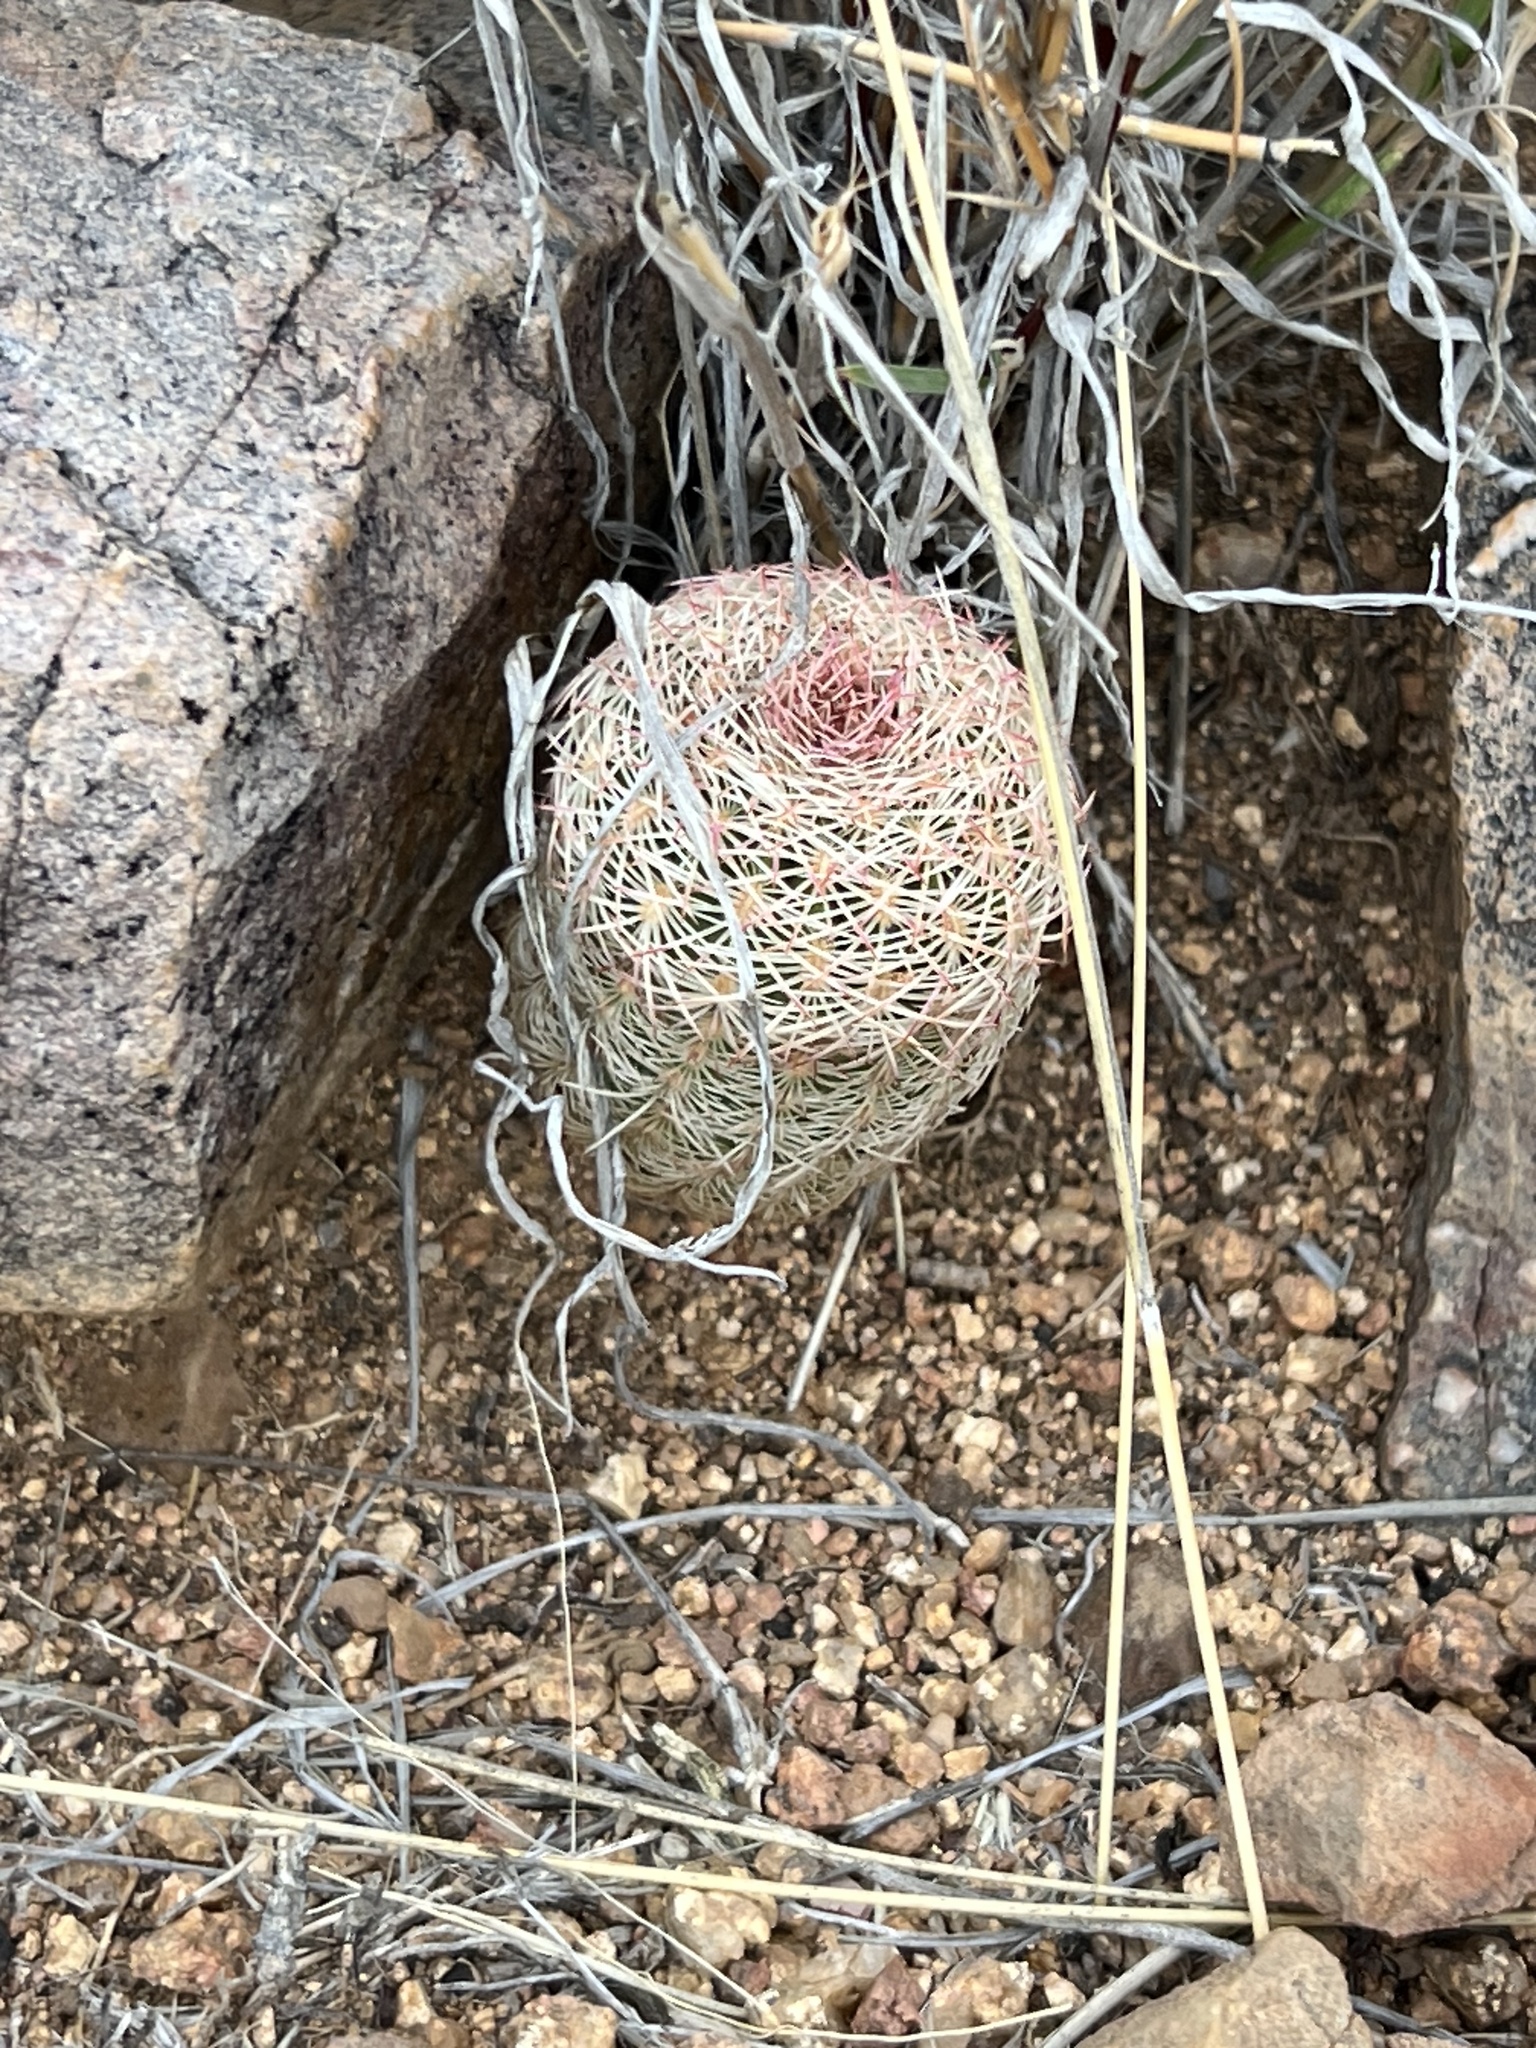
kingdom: Plantae
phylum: Tracheophyta
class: Magnoliopsida
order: Caryophyllales
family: Cactaceae
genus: Echinocereus
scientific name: Echinocereus rigidissimus
